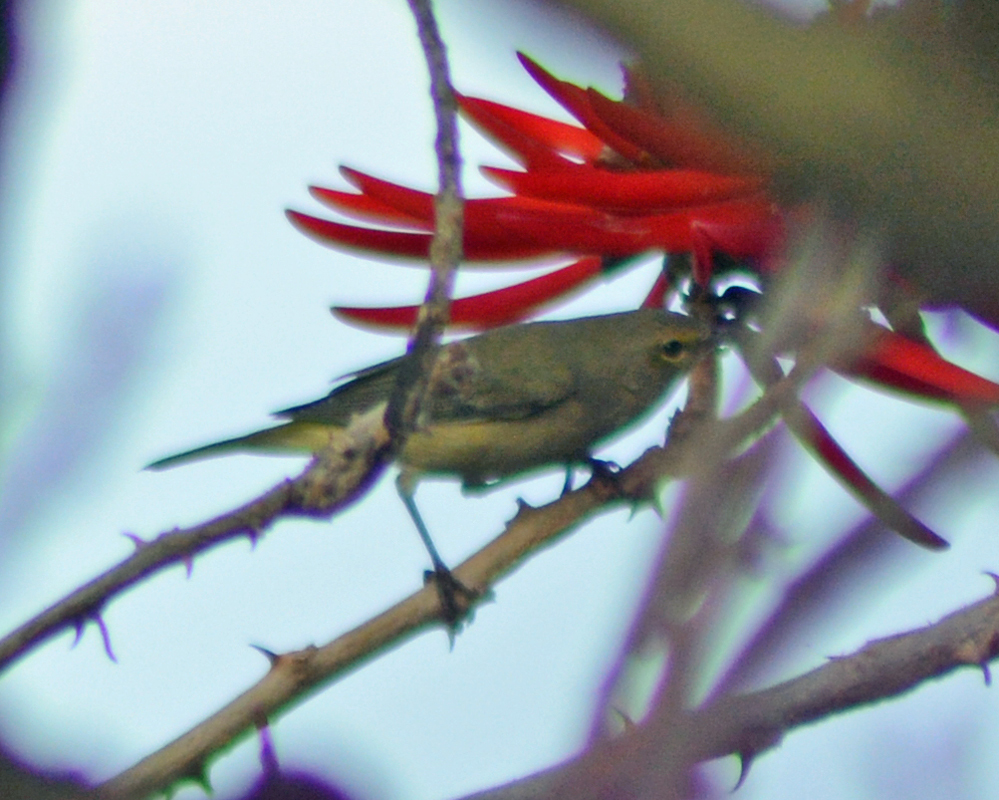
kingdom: Animalia
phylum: Chordata
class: Aves
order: Passeriformes
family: Parulidae
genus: Leiothlypis
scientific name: Leiothlypis celata
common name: Orange-crowned warbler
